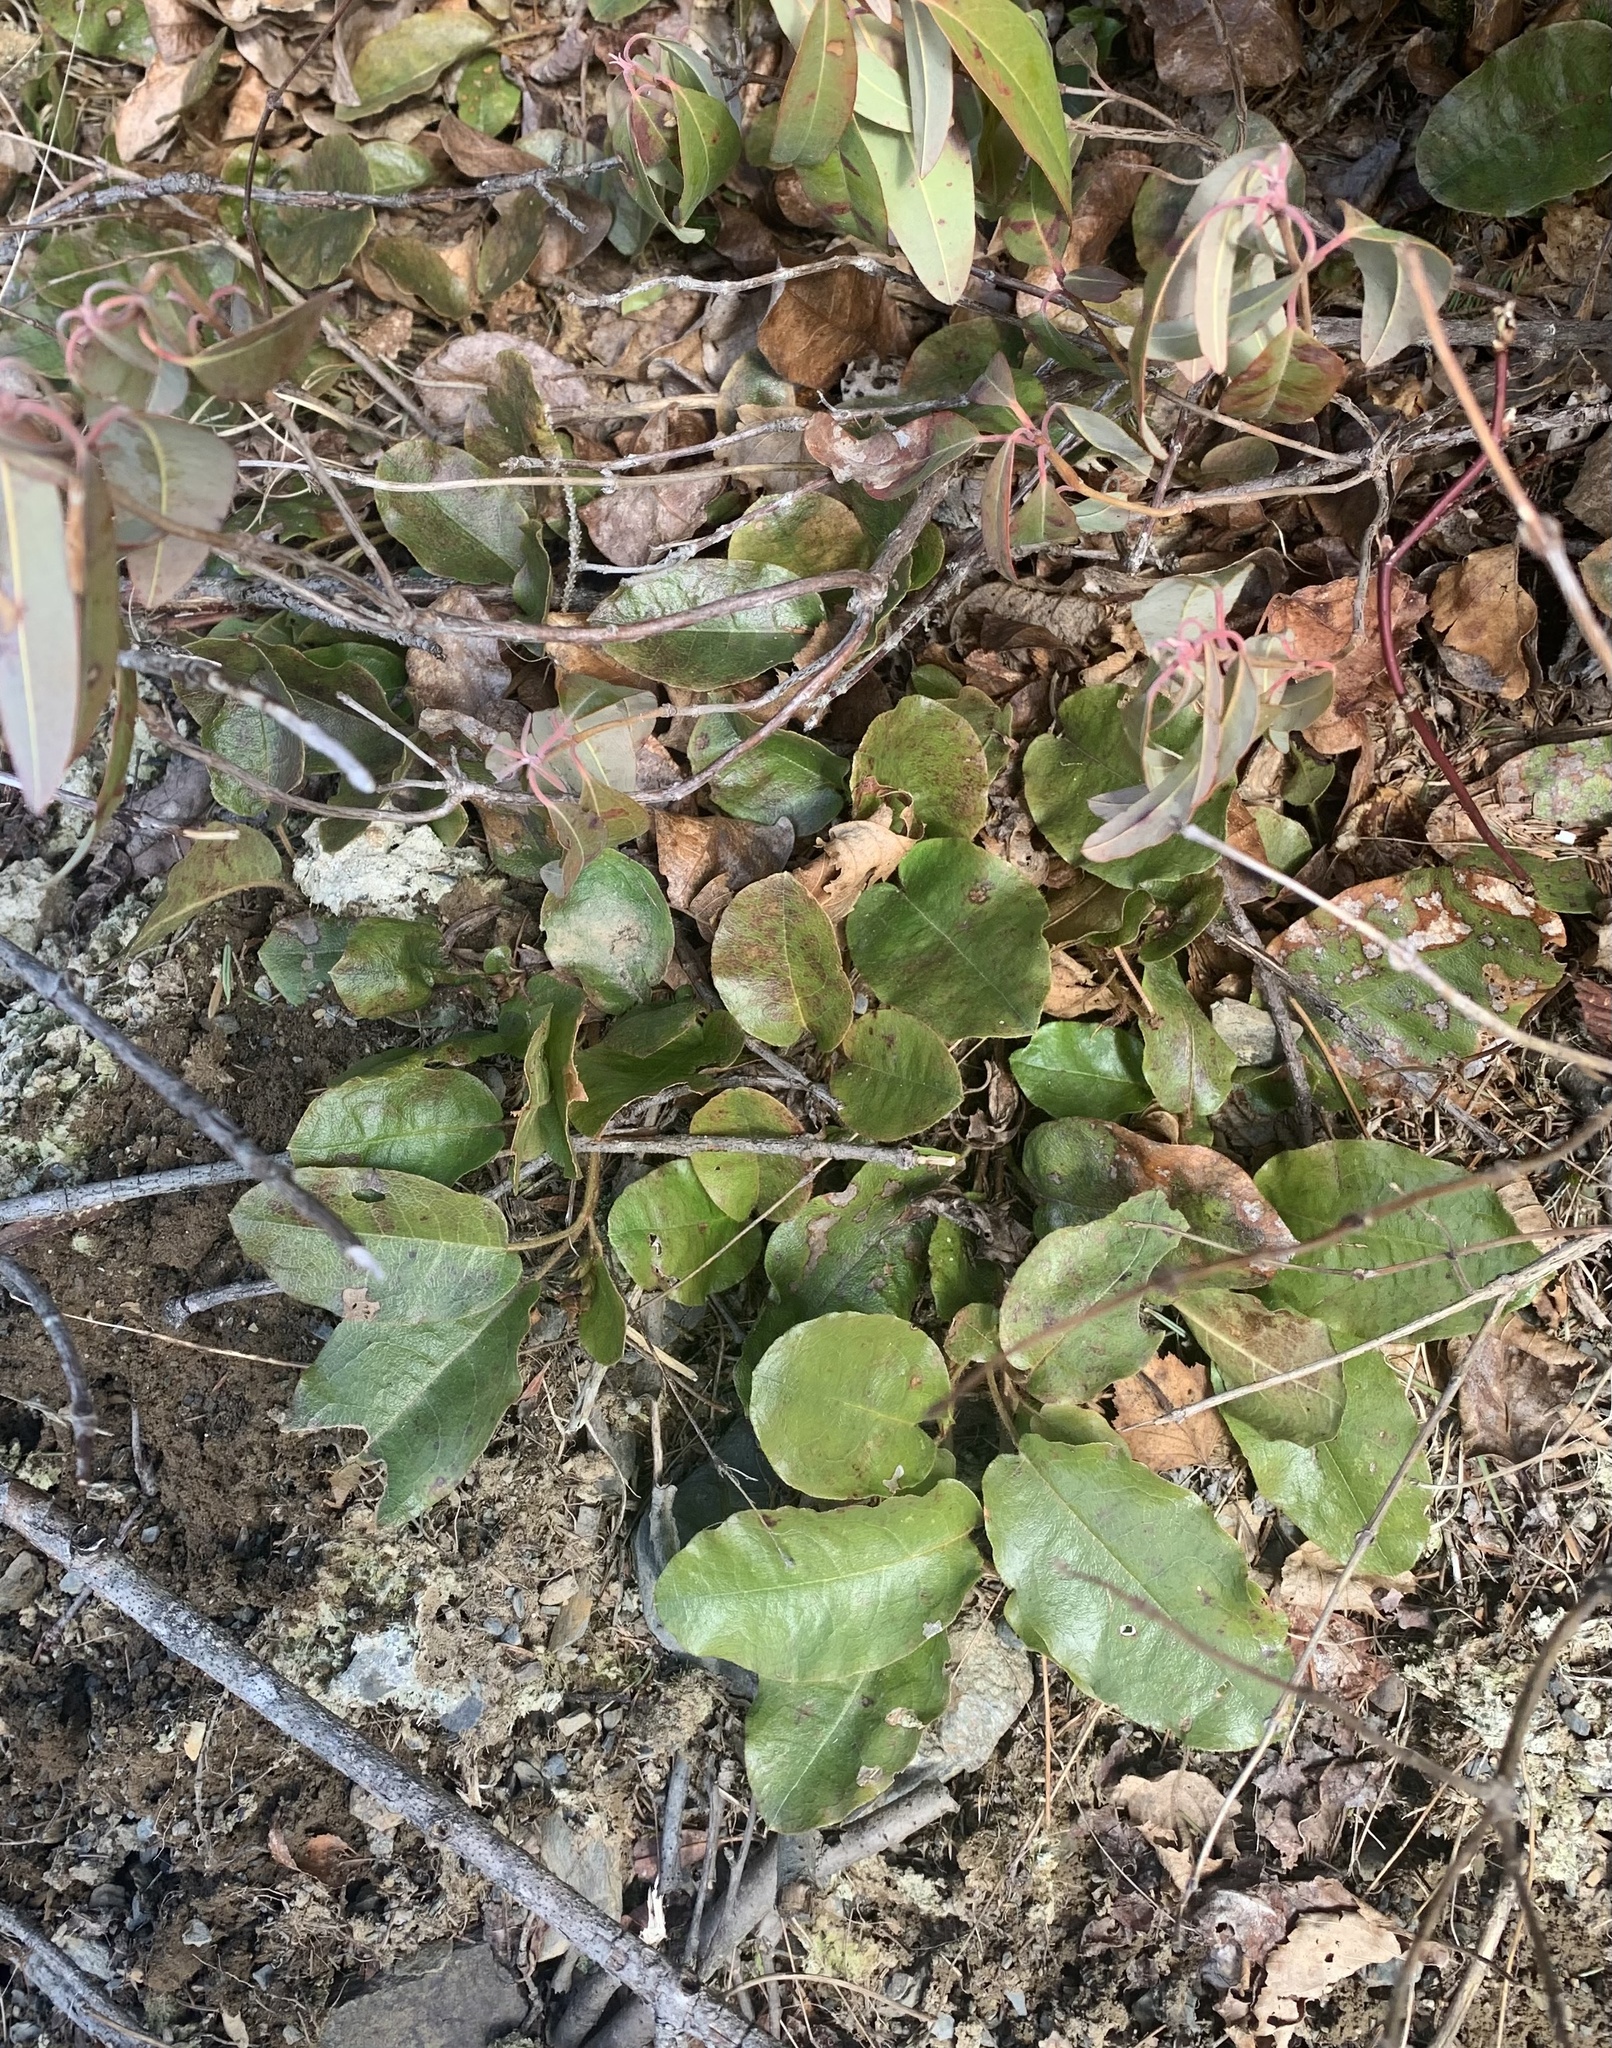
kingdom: Plantae
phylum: Tracheophyta
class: Magnoliopsida
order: Ericales
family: Ericaceae
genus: Epigaea
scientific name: Epigaea repens
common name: Gravelroot
